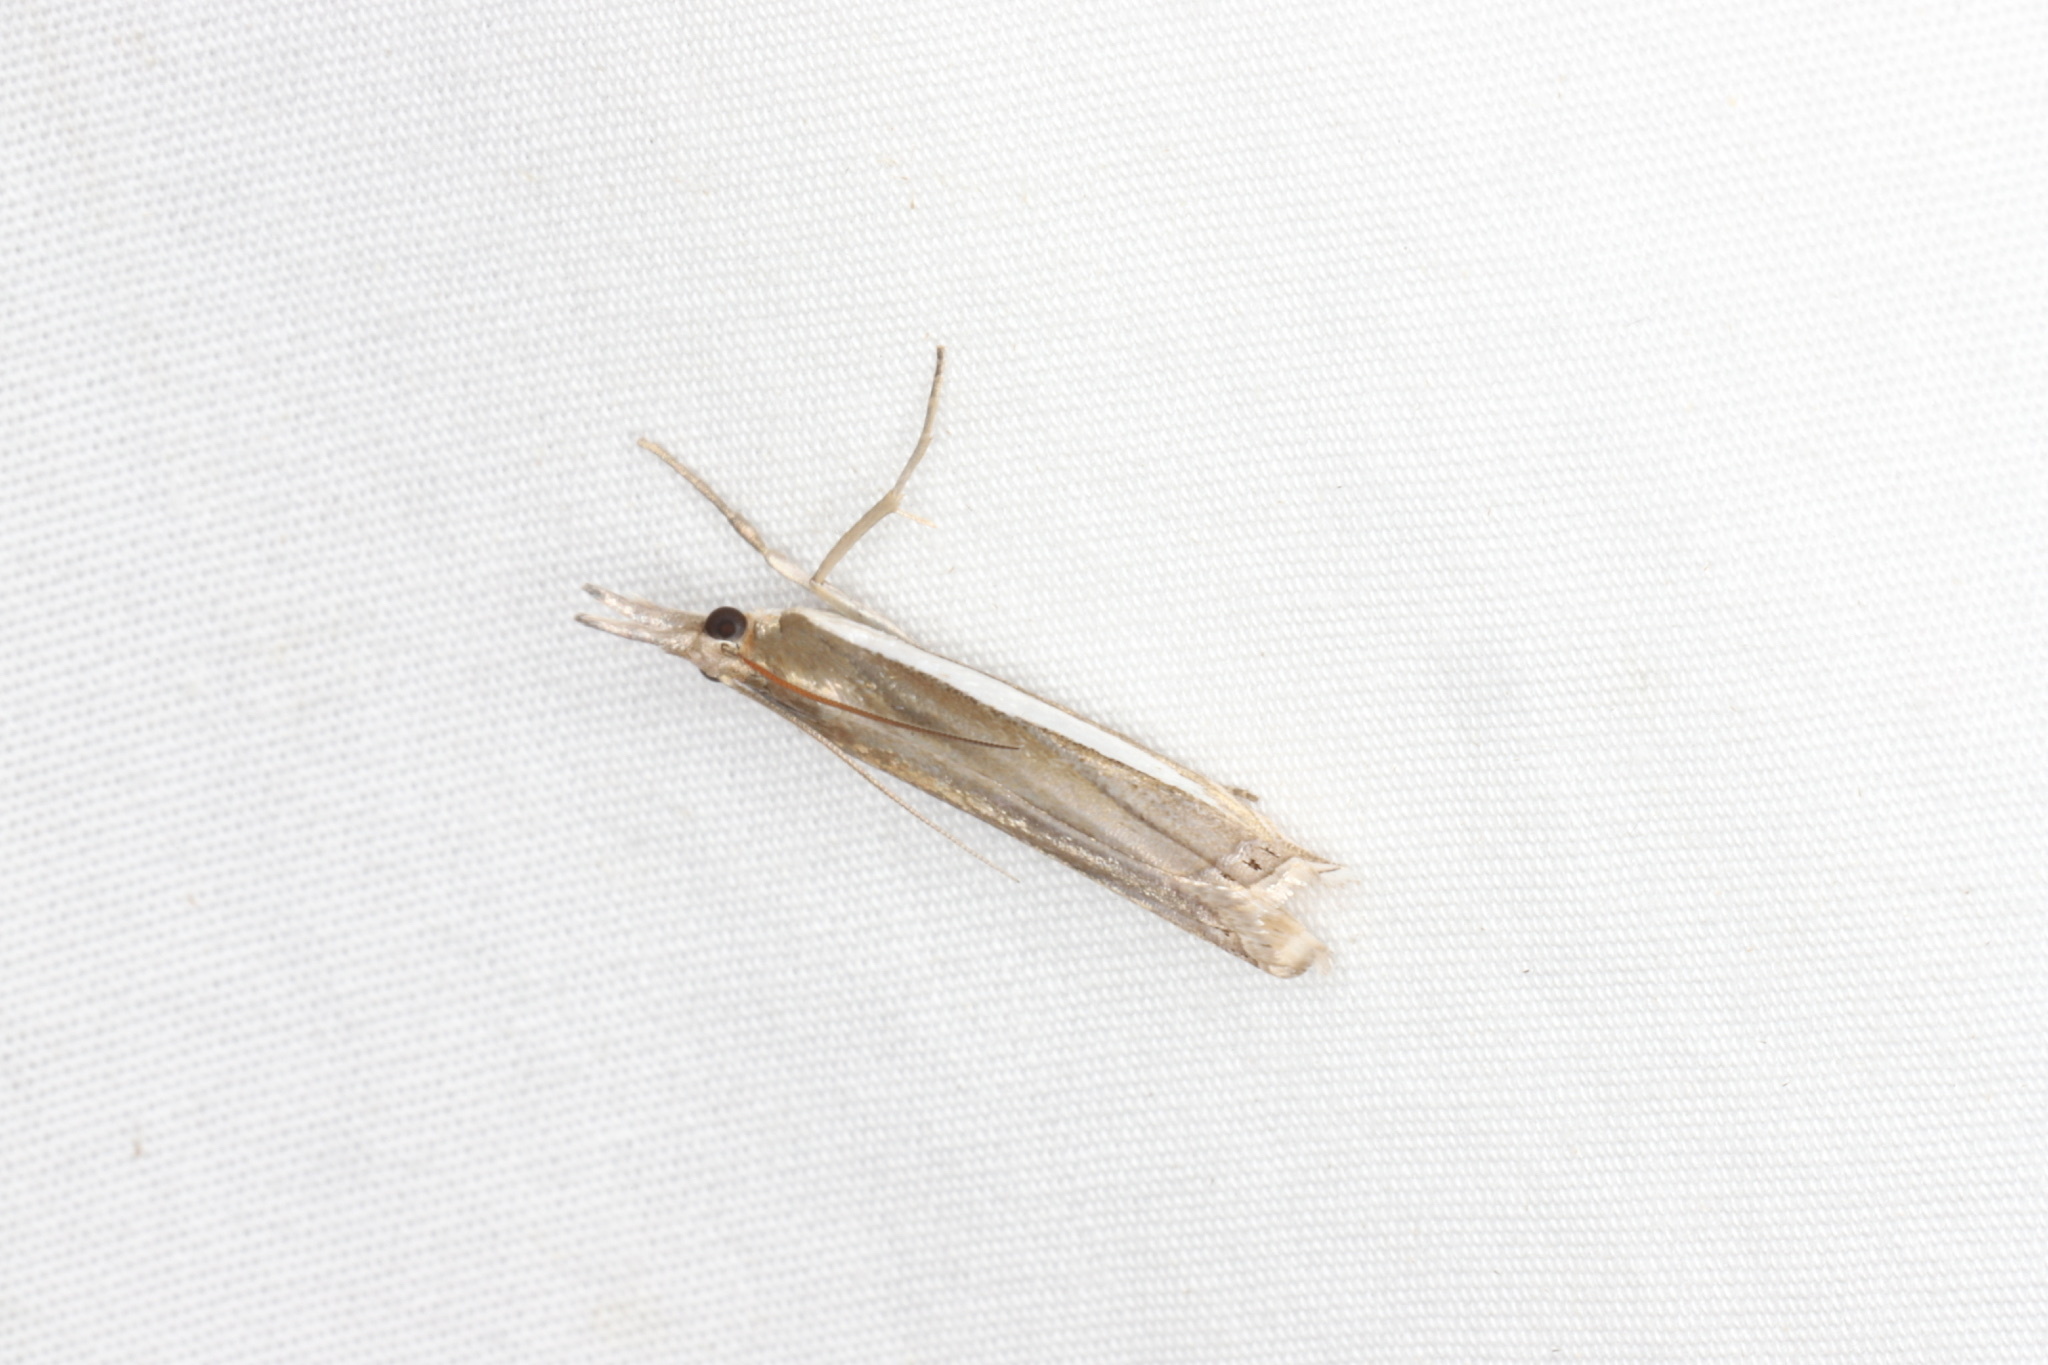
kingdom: Animalia
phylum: Arthropoda
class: Insecta
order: Lepidoptera
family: Crambidae
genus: Crambus
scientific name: Crambus
